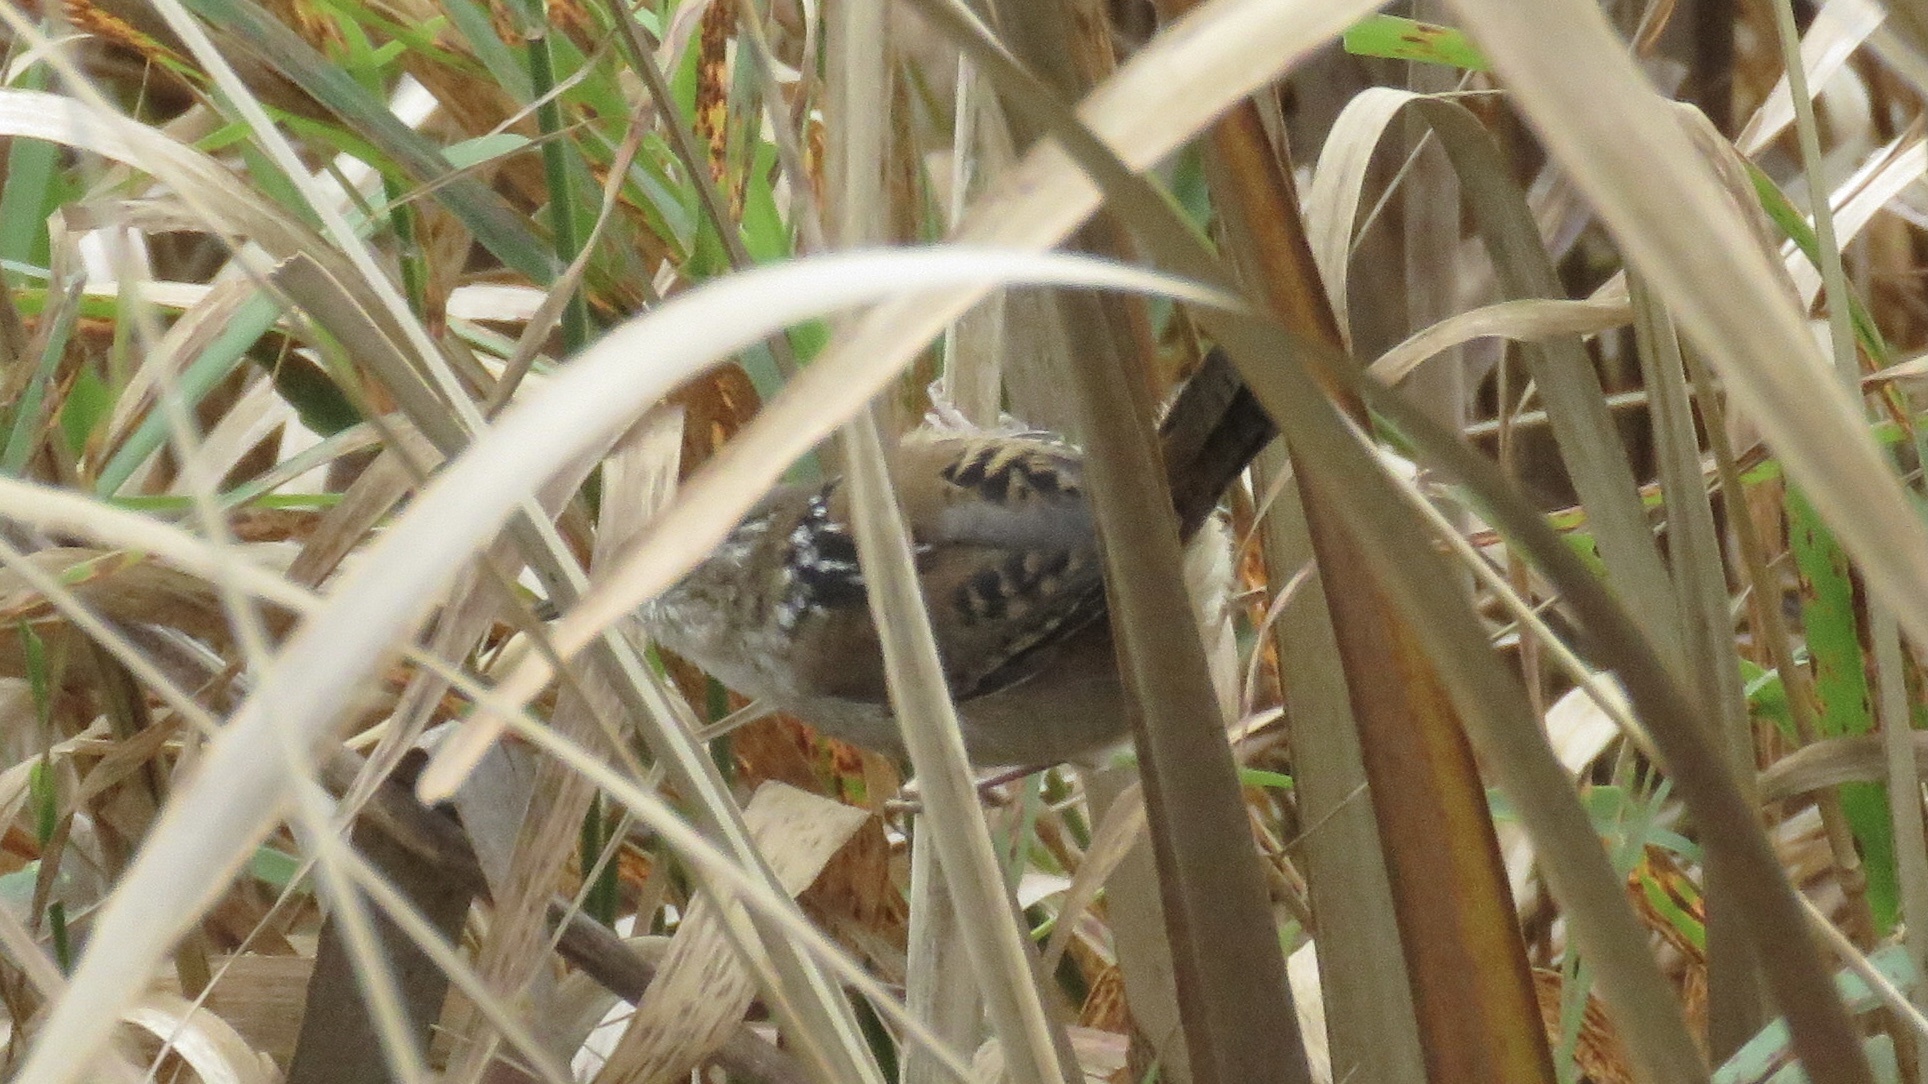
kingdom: Animalia
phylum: Chordata
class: Aves
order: Passeriformes
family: Troglodytidae
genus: Cistothorus
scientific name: Cistothorus palustris
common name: Marsh wren
